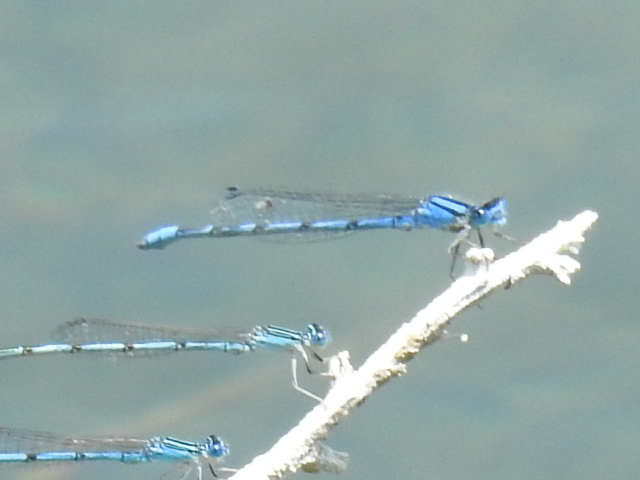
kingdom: Animalia
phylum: Arthropoda
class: Insecta
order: Odonata
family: Coenagrionidae
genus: Enallagma
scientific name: Enallagma civile
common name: Damselfly
